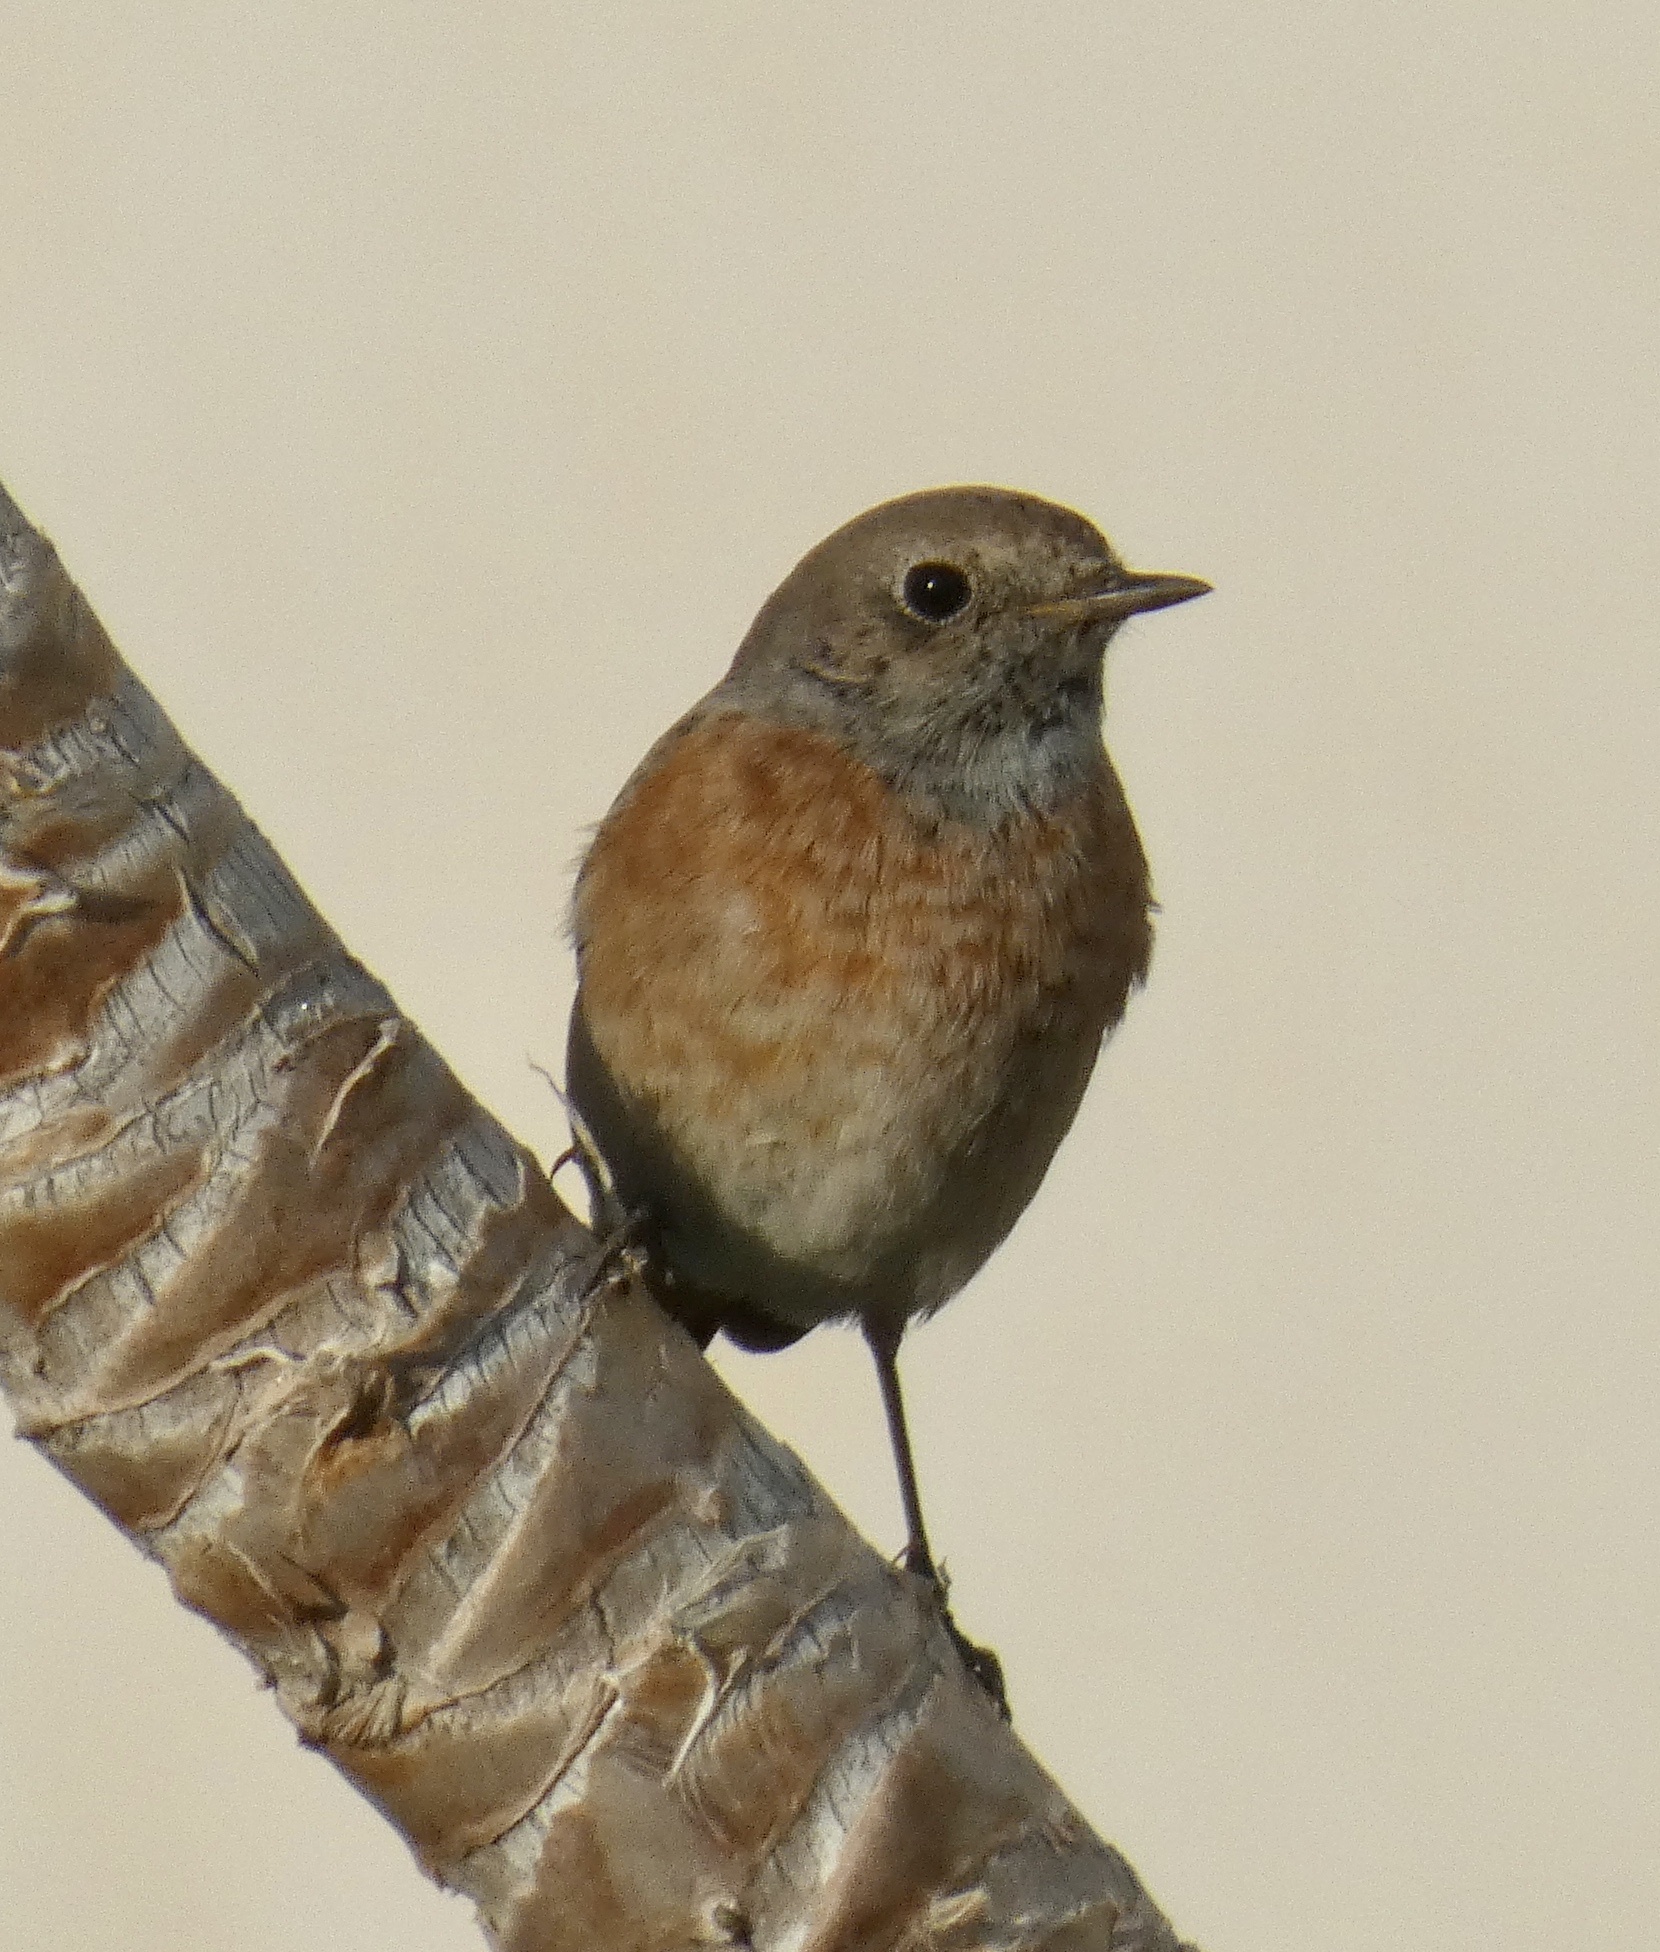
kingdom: Animalia
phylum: Chordata
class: Aves
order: Passeriformes
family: Muscicapidae
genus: Phoenicurus
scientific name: Phoenicurus phoenicurus
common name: Common redstart
